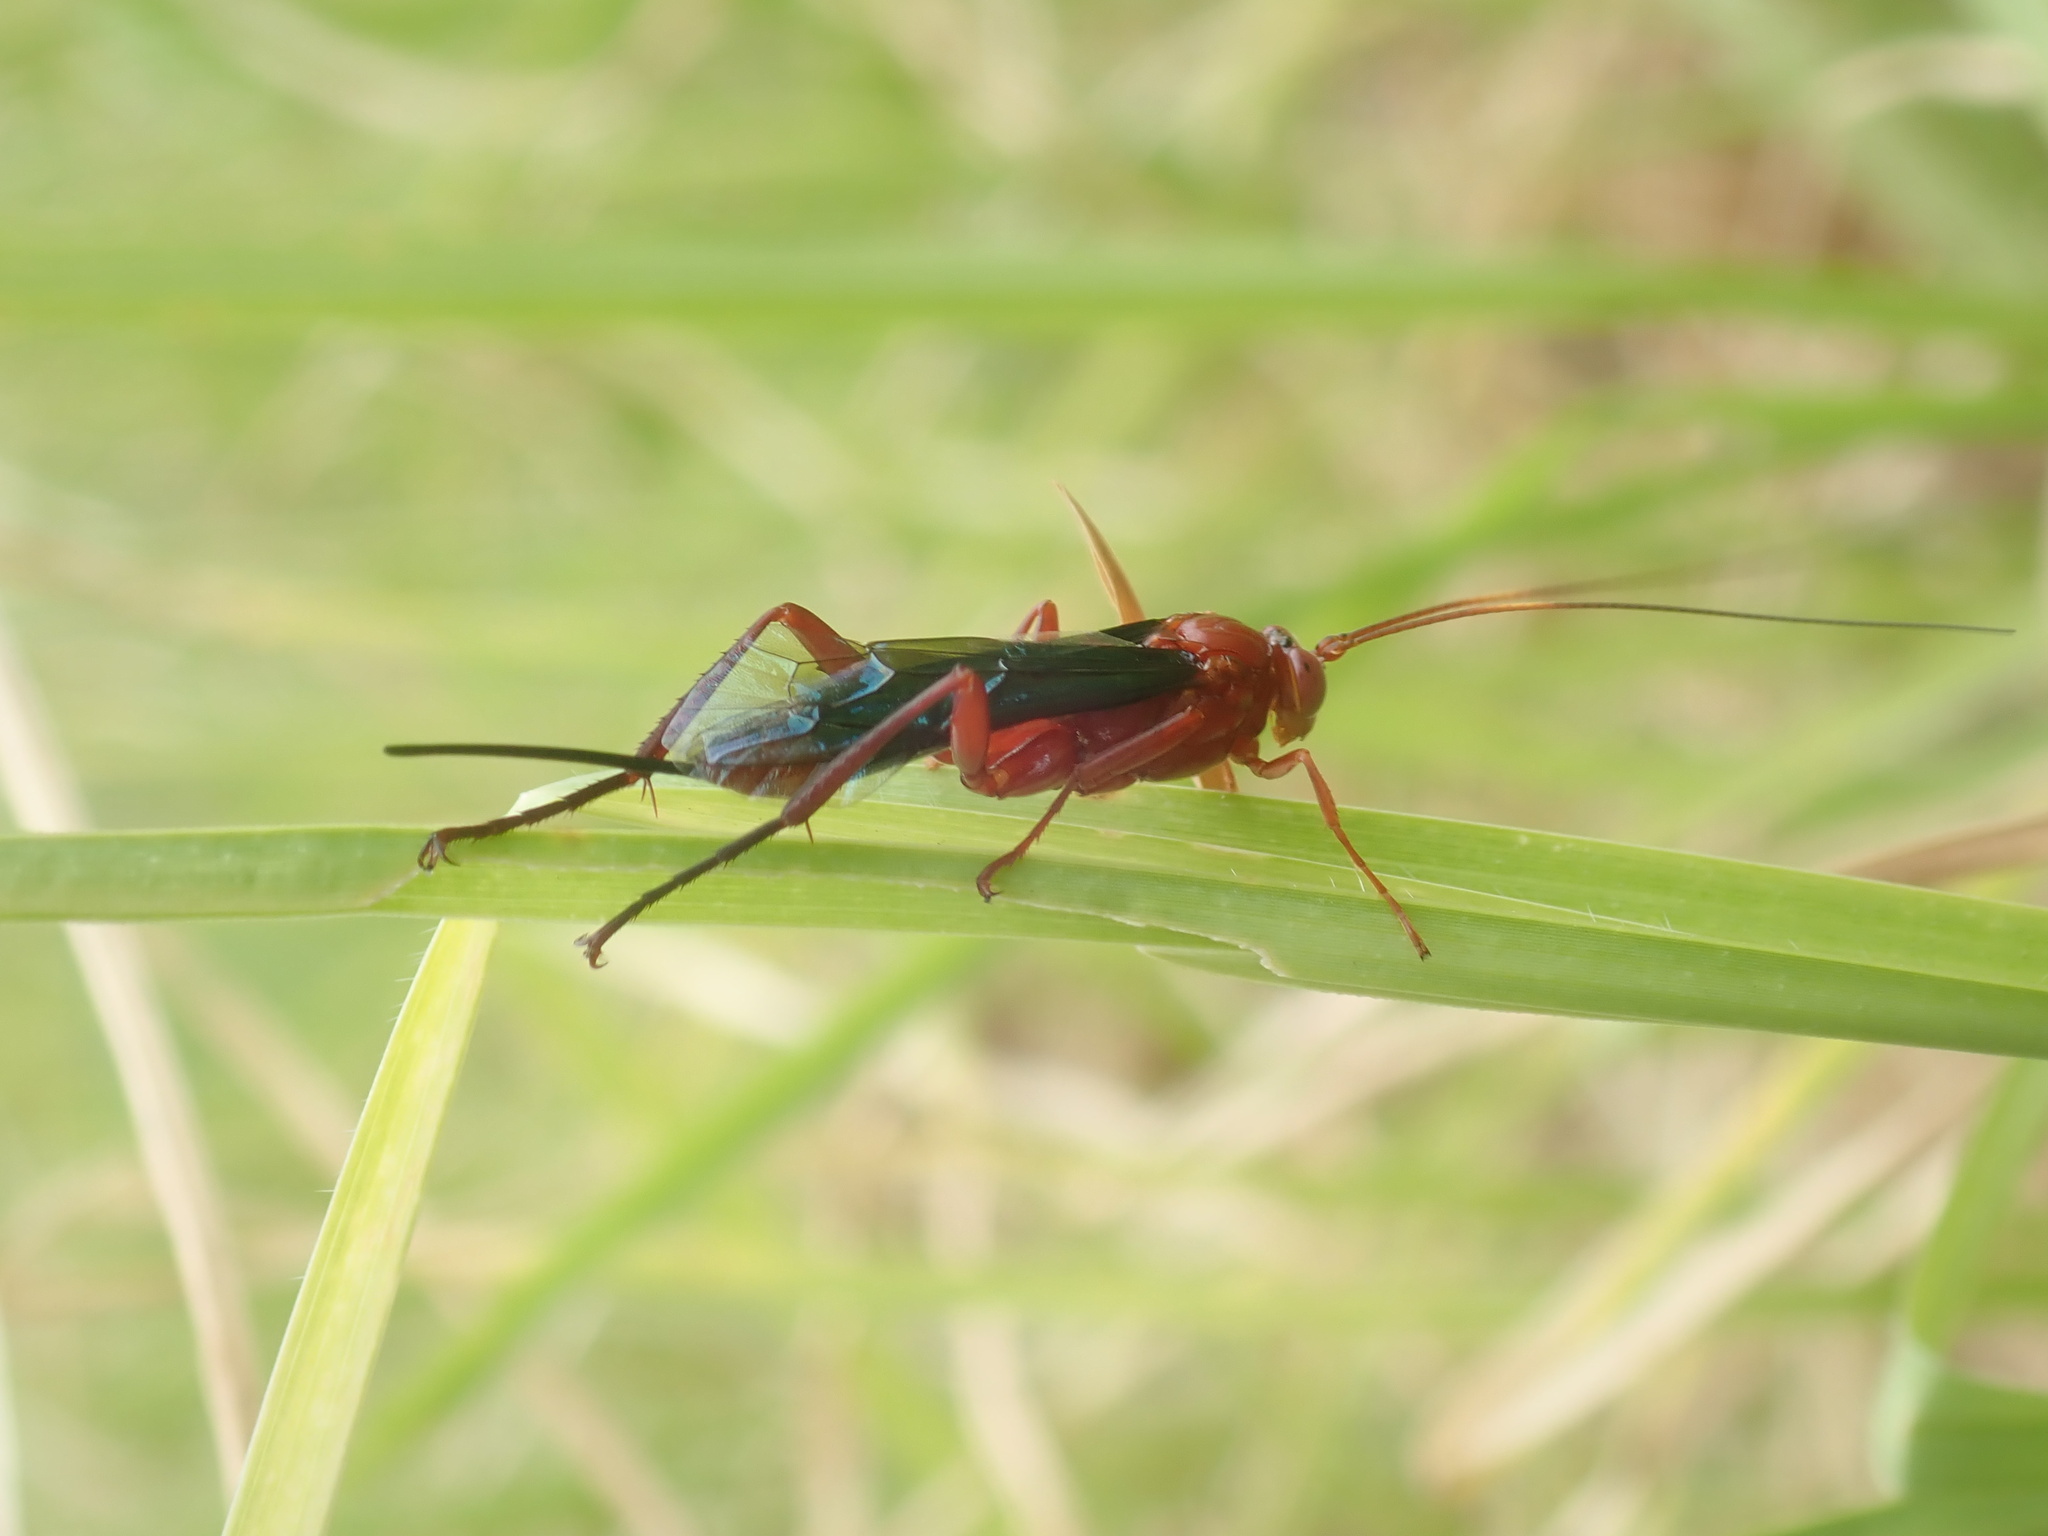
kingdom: Animalia
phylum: Arthropoda
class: Insecta
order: Hymenoptera
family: Ichneumonidae
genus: Lissopimpla
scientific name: Lissopimpla excelsa
